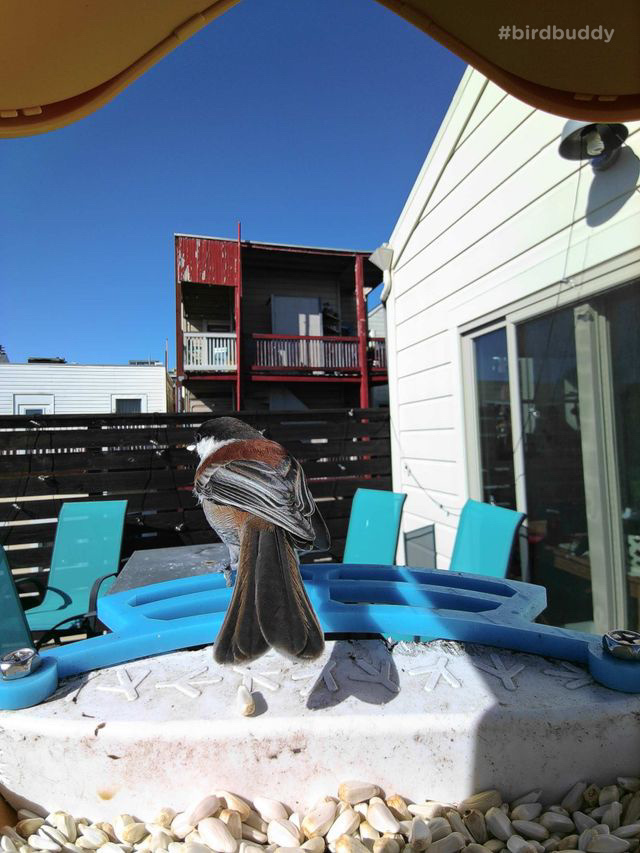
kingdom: Animalia
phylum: Chordata
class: Aves
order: Passeriformes
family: Paridae
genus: Poecile
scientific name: Poecile rufescens
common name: Chestnut-backed chickadee
